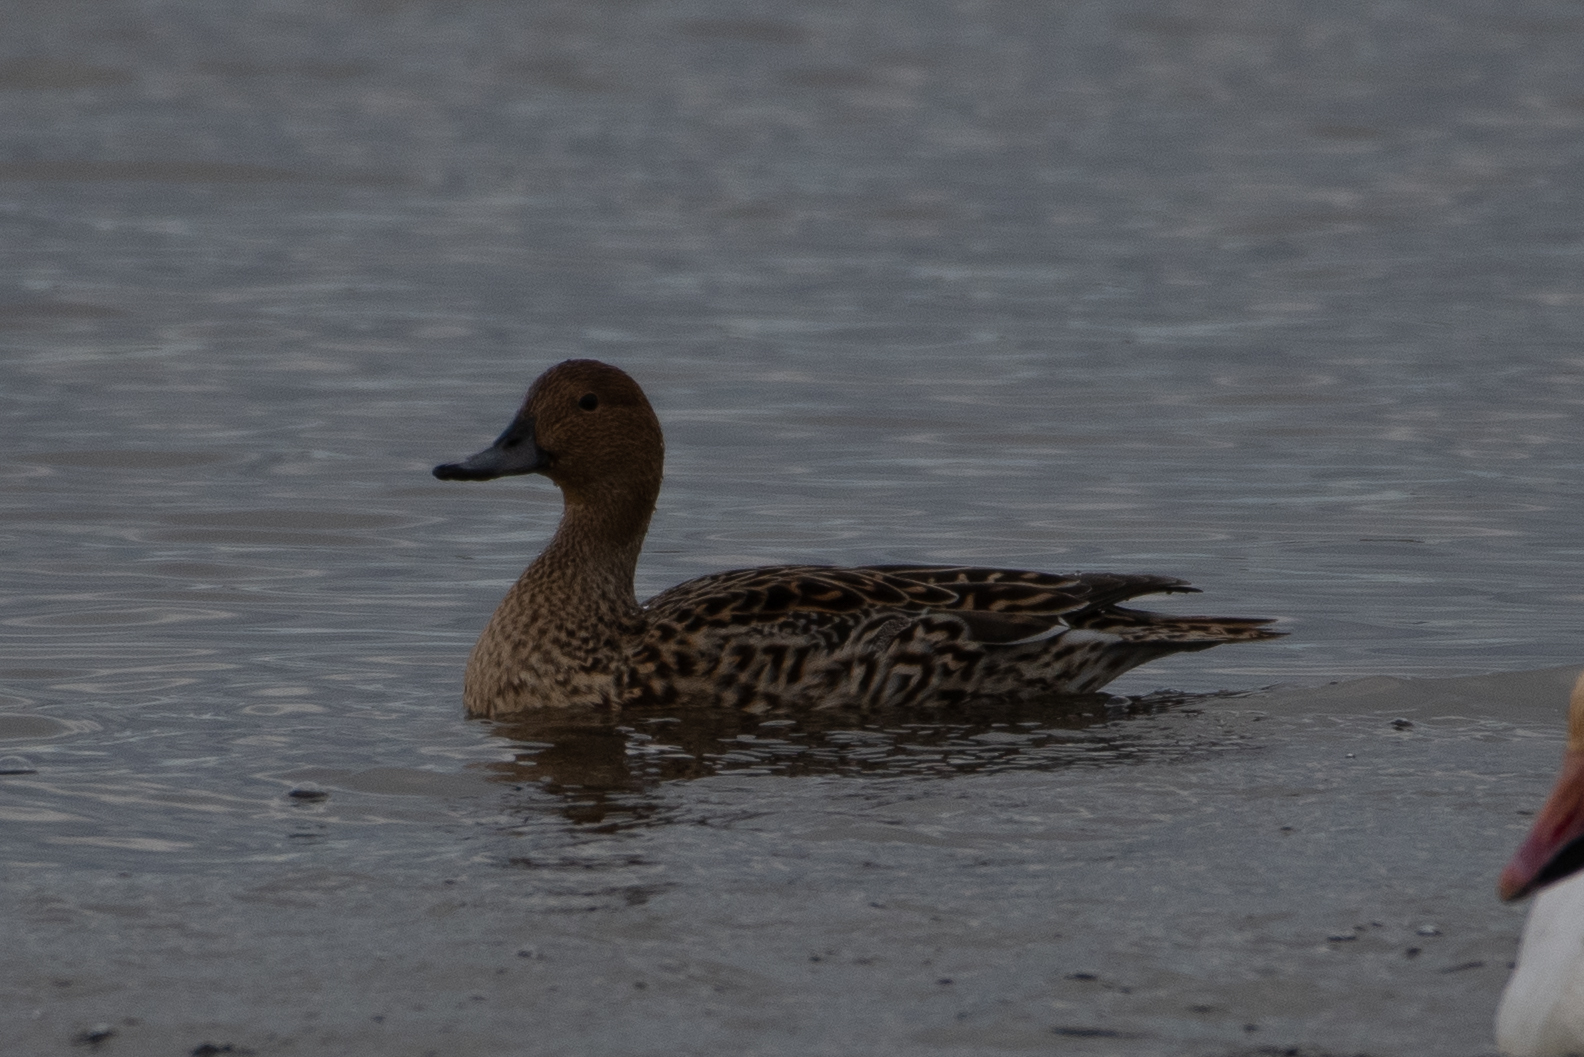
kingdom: Animalia
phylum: Chordata
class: Aves
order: Anseriformes
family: Anatidae
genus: Anas
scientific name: Anas acuta
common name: Northern pintail
